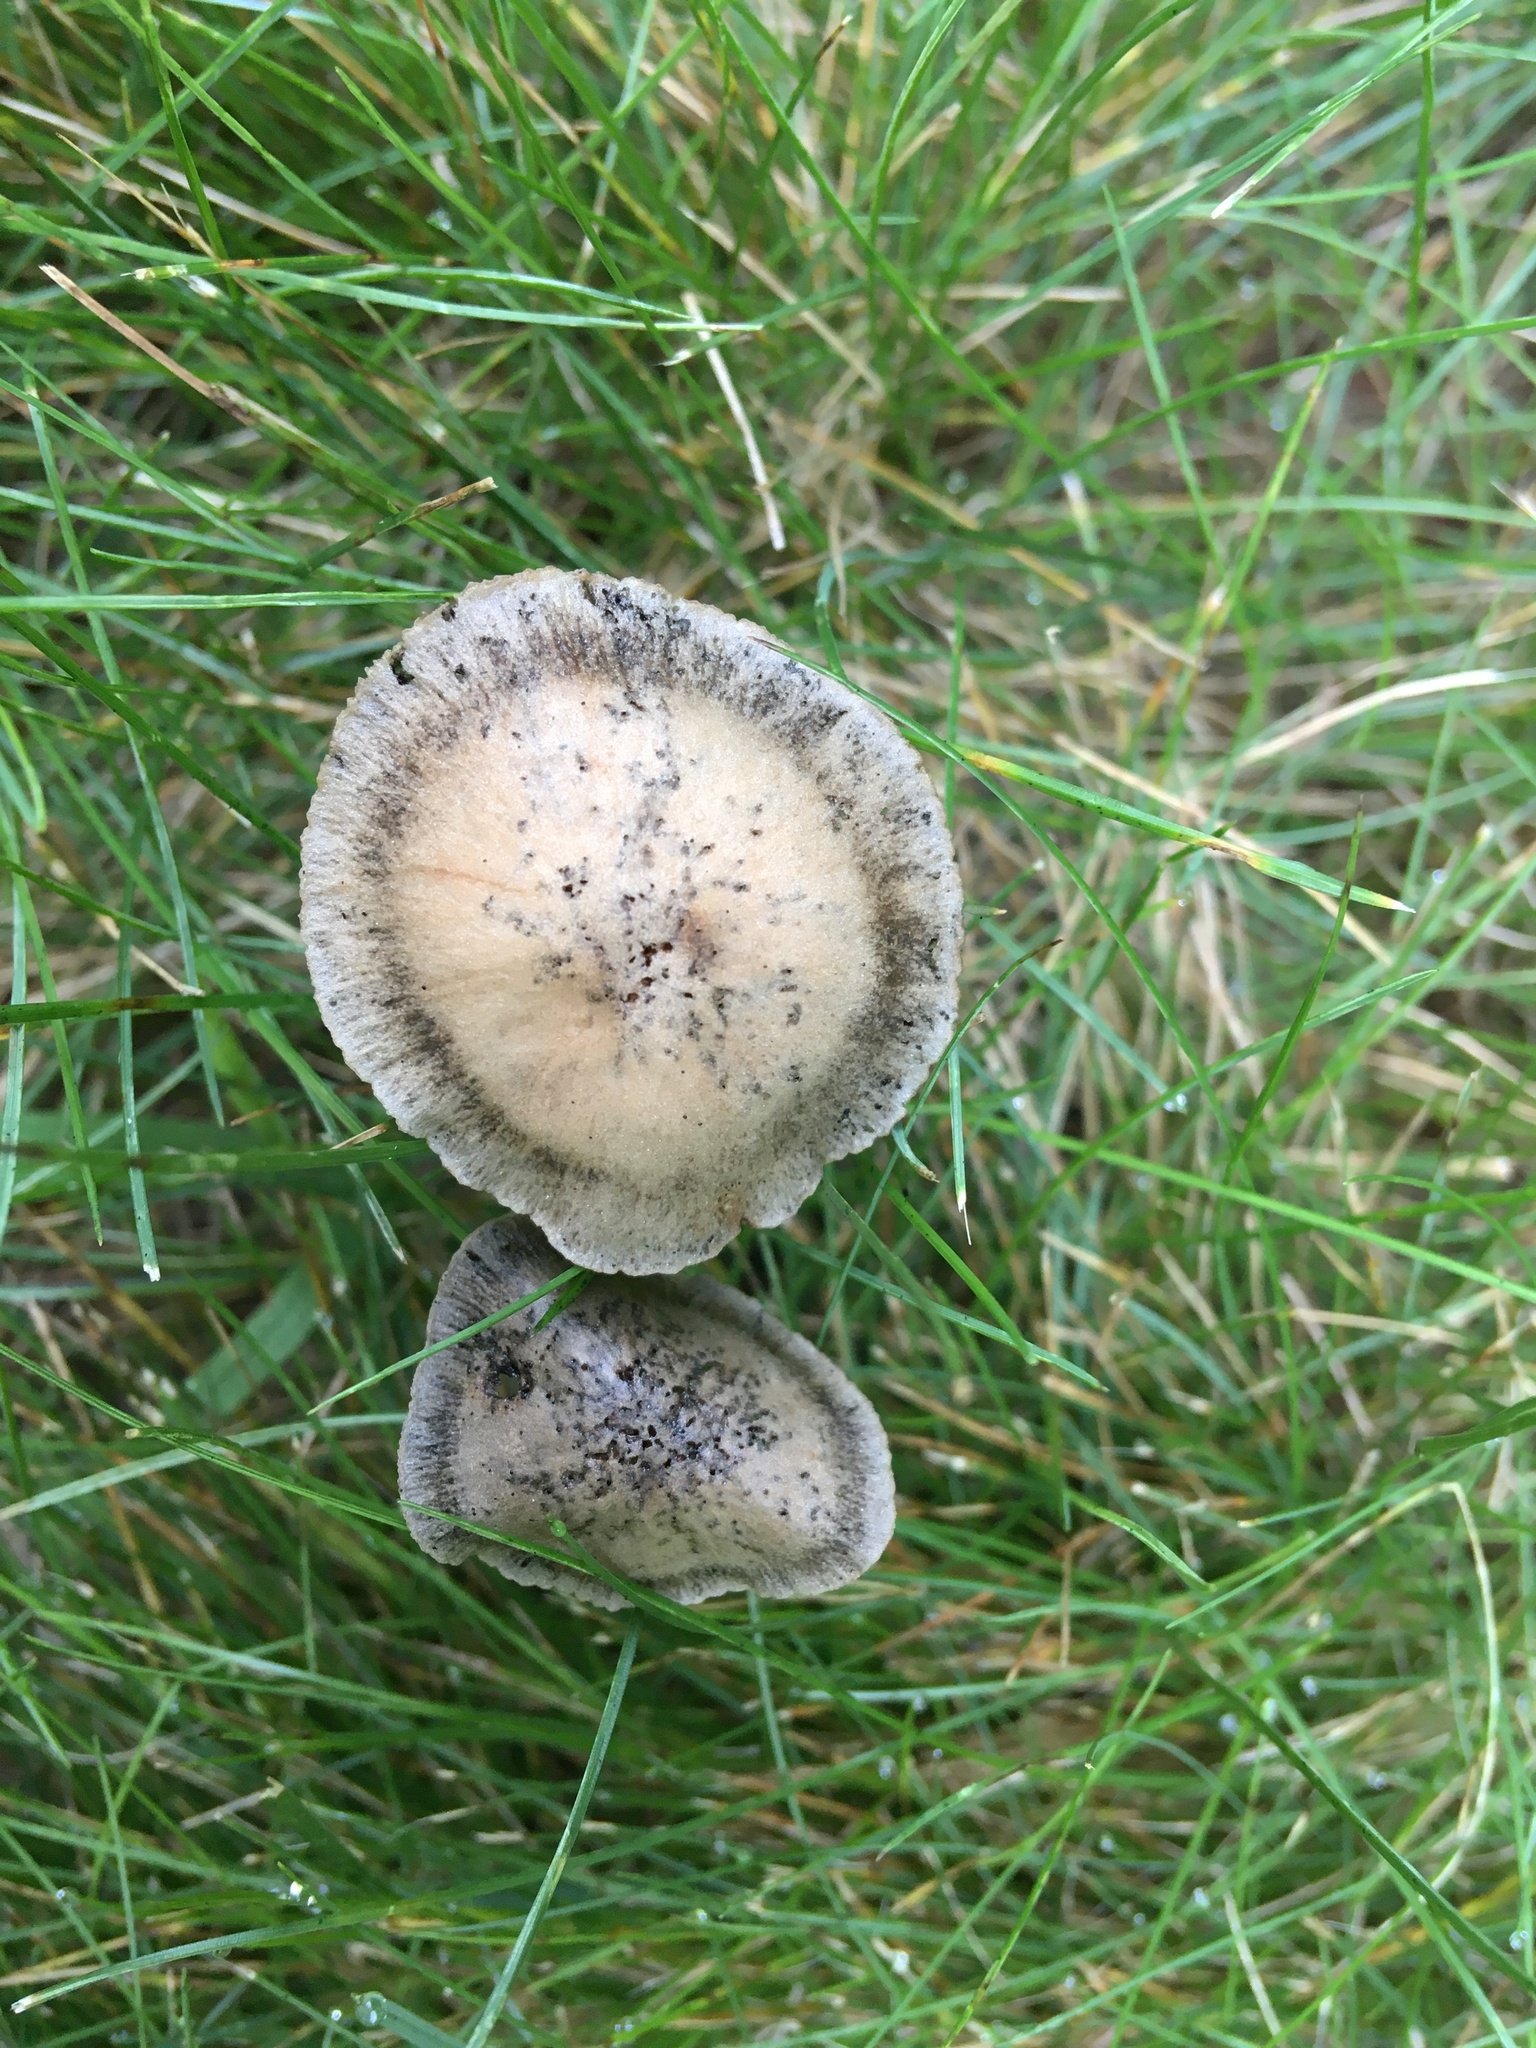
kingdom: Fungi
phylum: Basidiomycota
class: Agaricomycetes
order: Agaricales
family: Bolbitiaceae
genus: Panaeolus
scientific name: Panaeolus cinctulus
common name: Banded mottlegill
